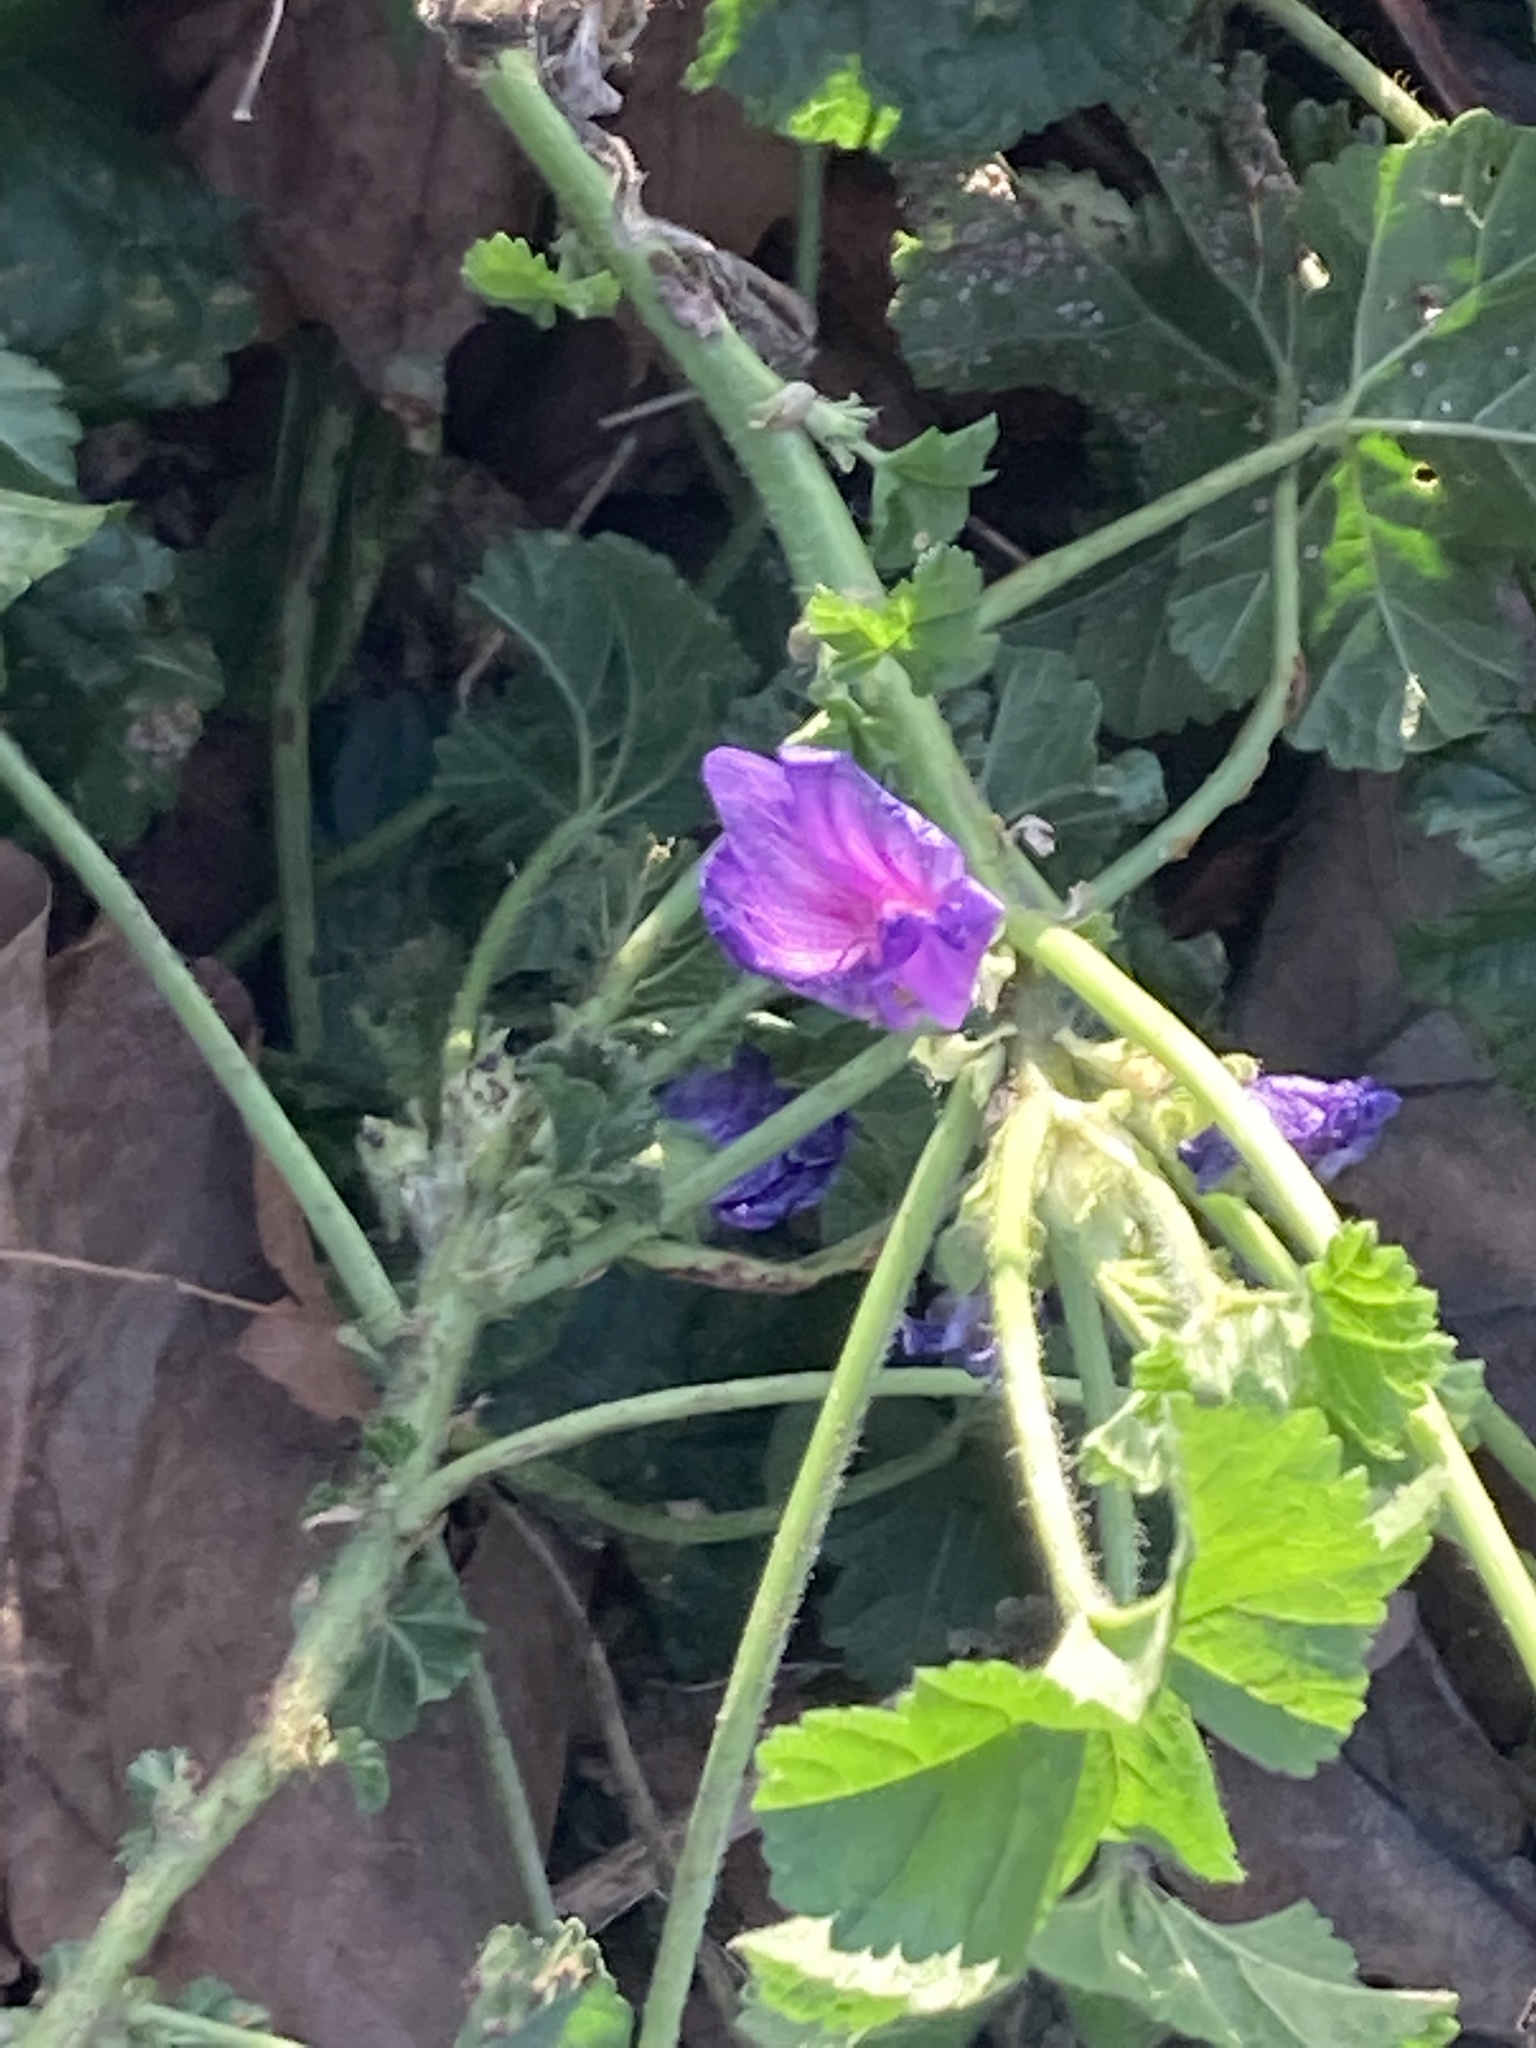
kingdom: Plantae
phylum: Tracheophyta
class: Magnoliopsida
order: Malvales
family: Malvaceae
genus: Malva
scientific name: Malva sylvestris
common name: Common mallow
